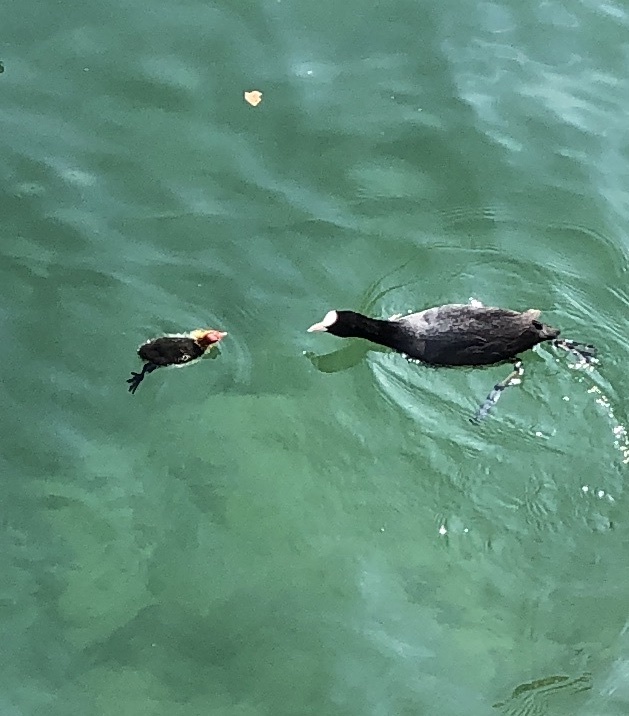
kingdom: Animalia
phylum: Chordata
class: Aves
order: Gruiformes
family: Rallidae
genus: Fulica
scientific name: Fulica atra
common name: Eurasian coot
